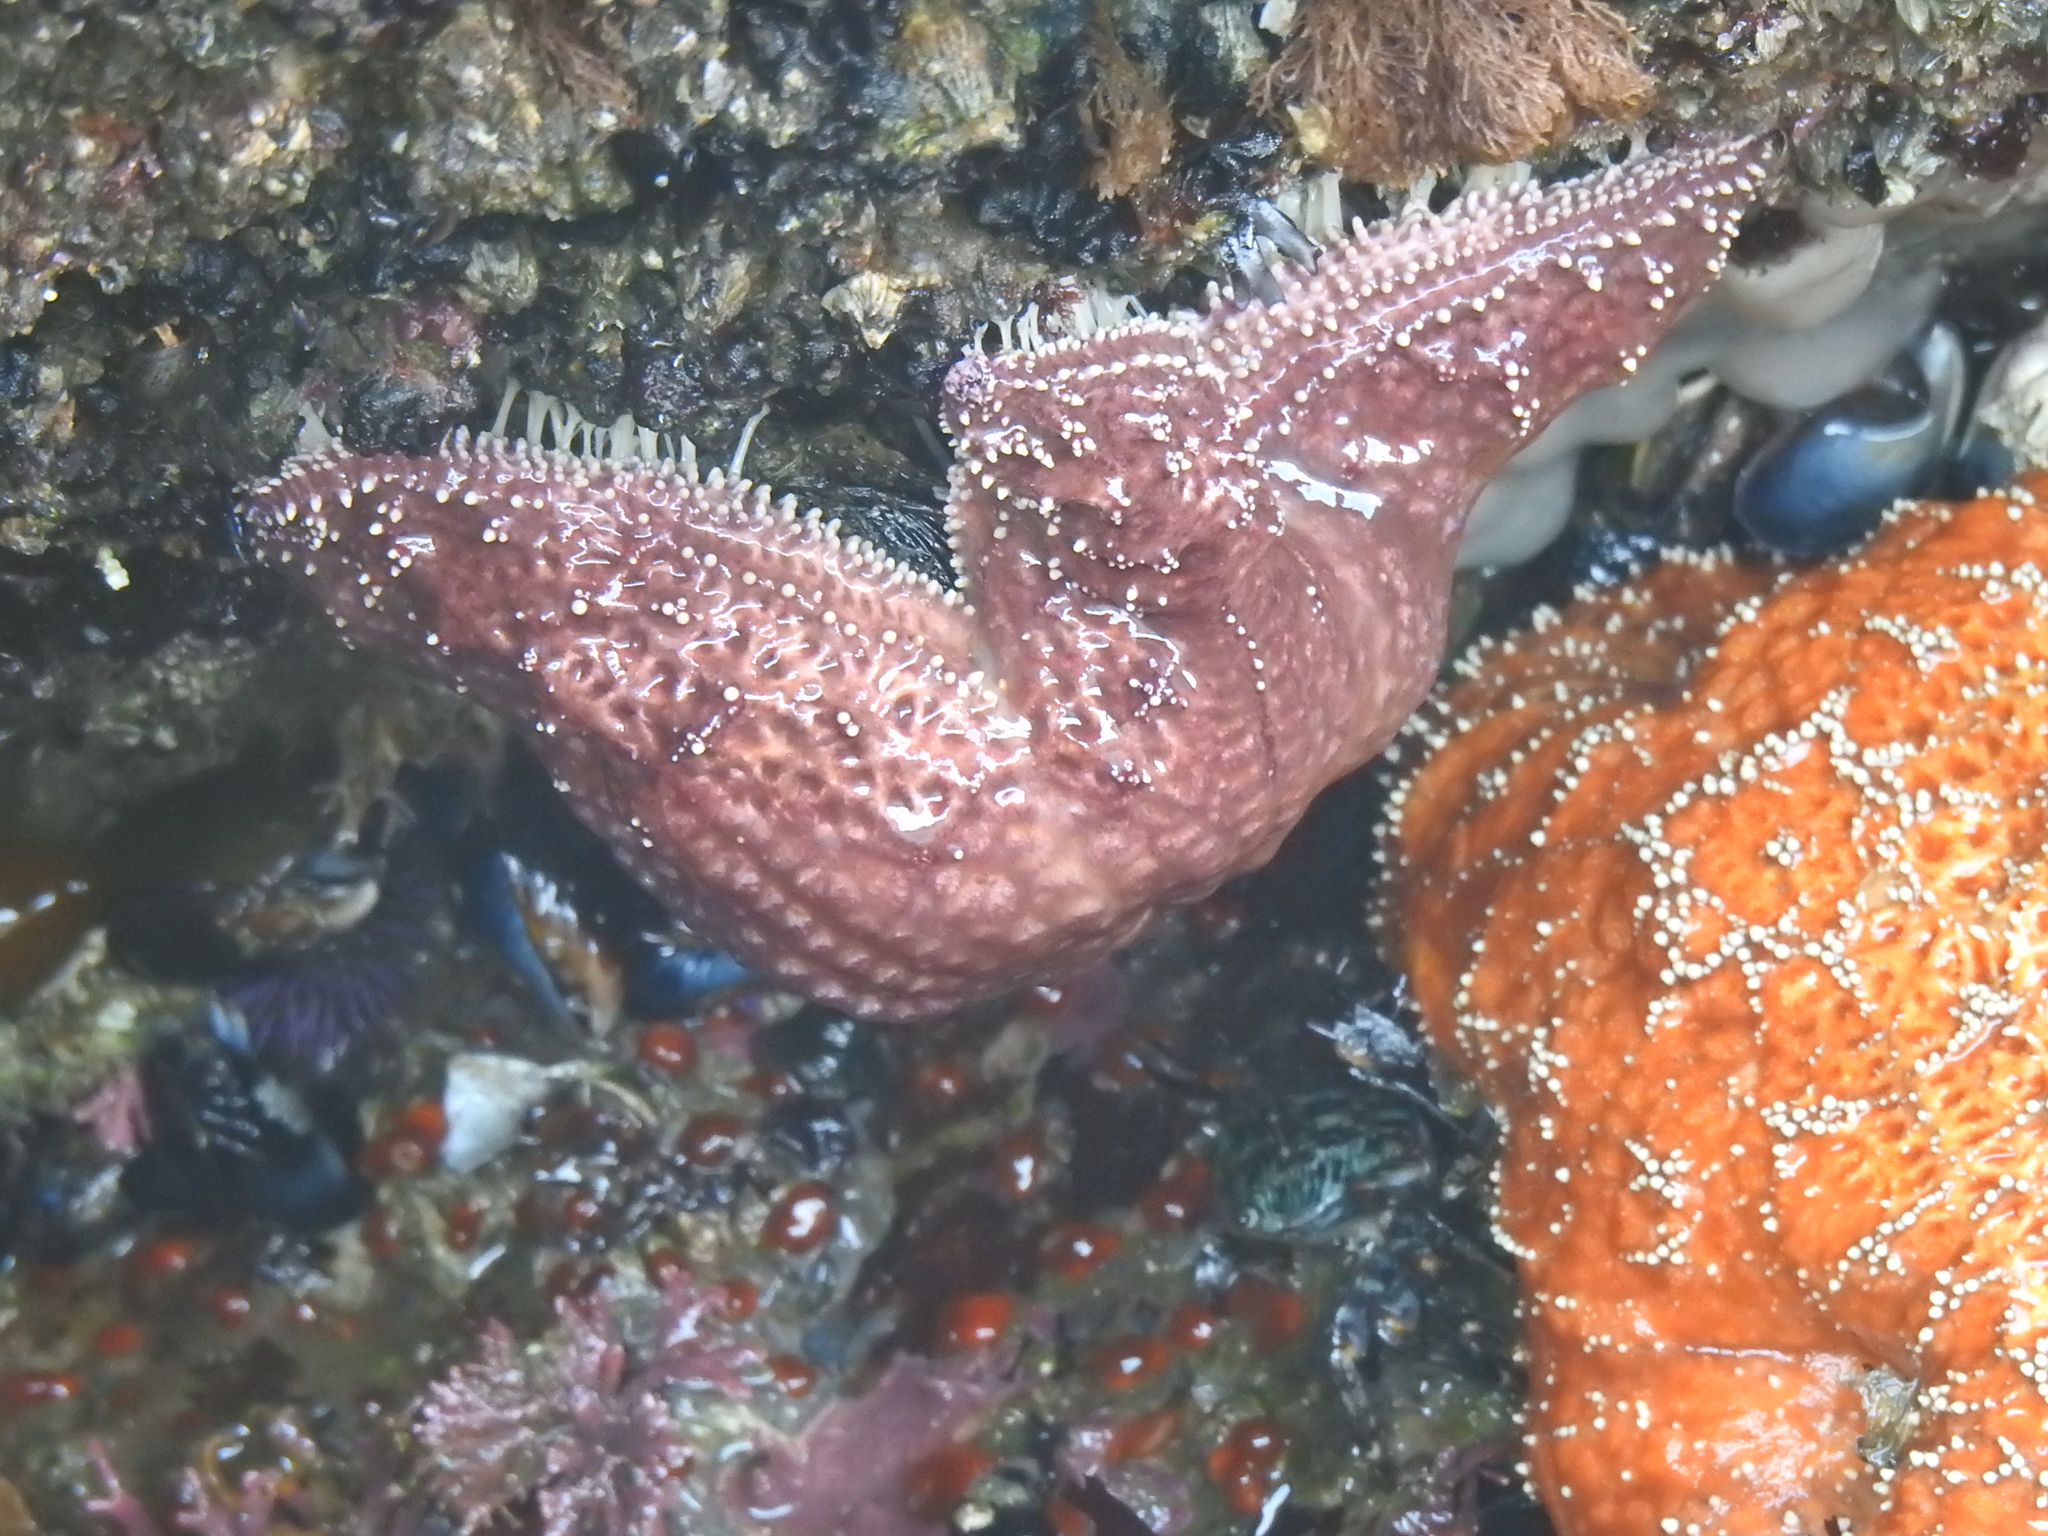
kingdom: Animalia
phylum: Echinodermata
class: Asteroidea
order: Forcipulatida
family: Asteriidae
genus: Pisaster
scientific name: Pisaster ochraceus
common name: Ochre stars
